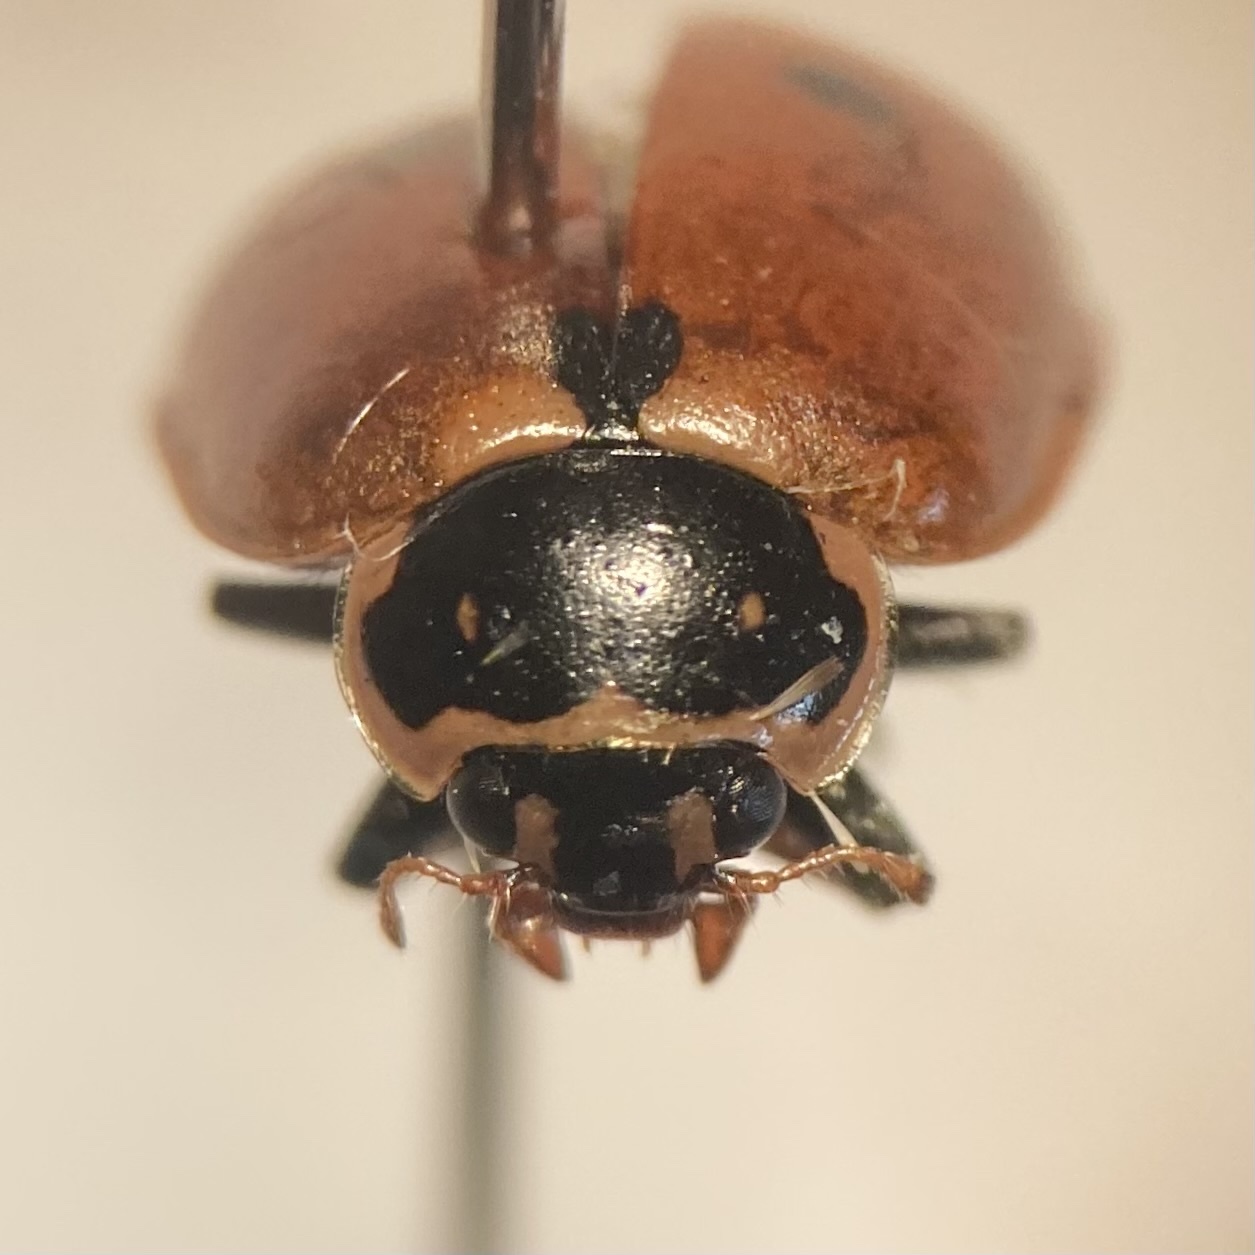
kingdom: Animalia
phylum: Arthropoda
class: Insecta
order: Coleoptera
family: Coccinellidae
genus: Hippodamia
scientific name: Hippodamia variegata
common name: Ladybird beetle
